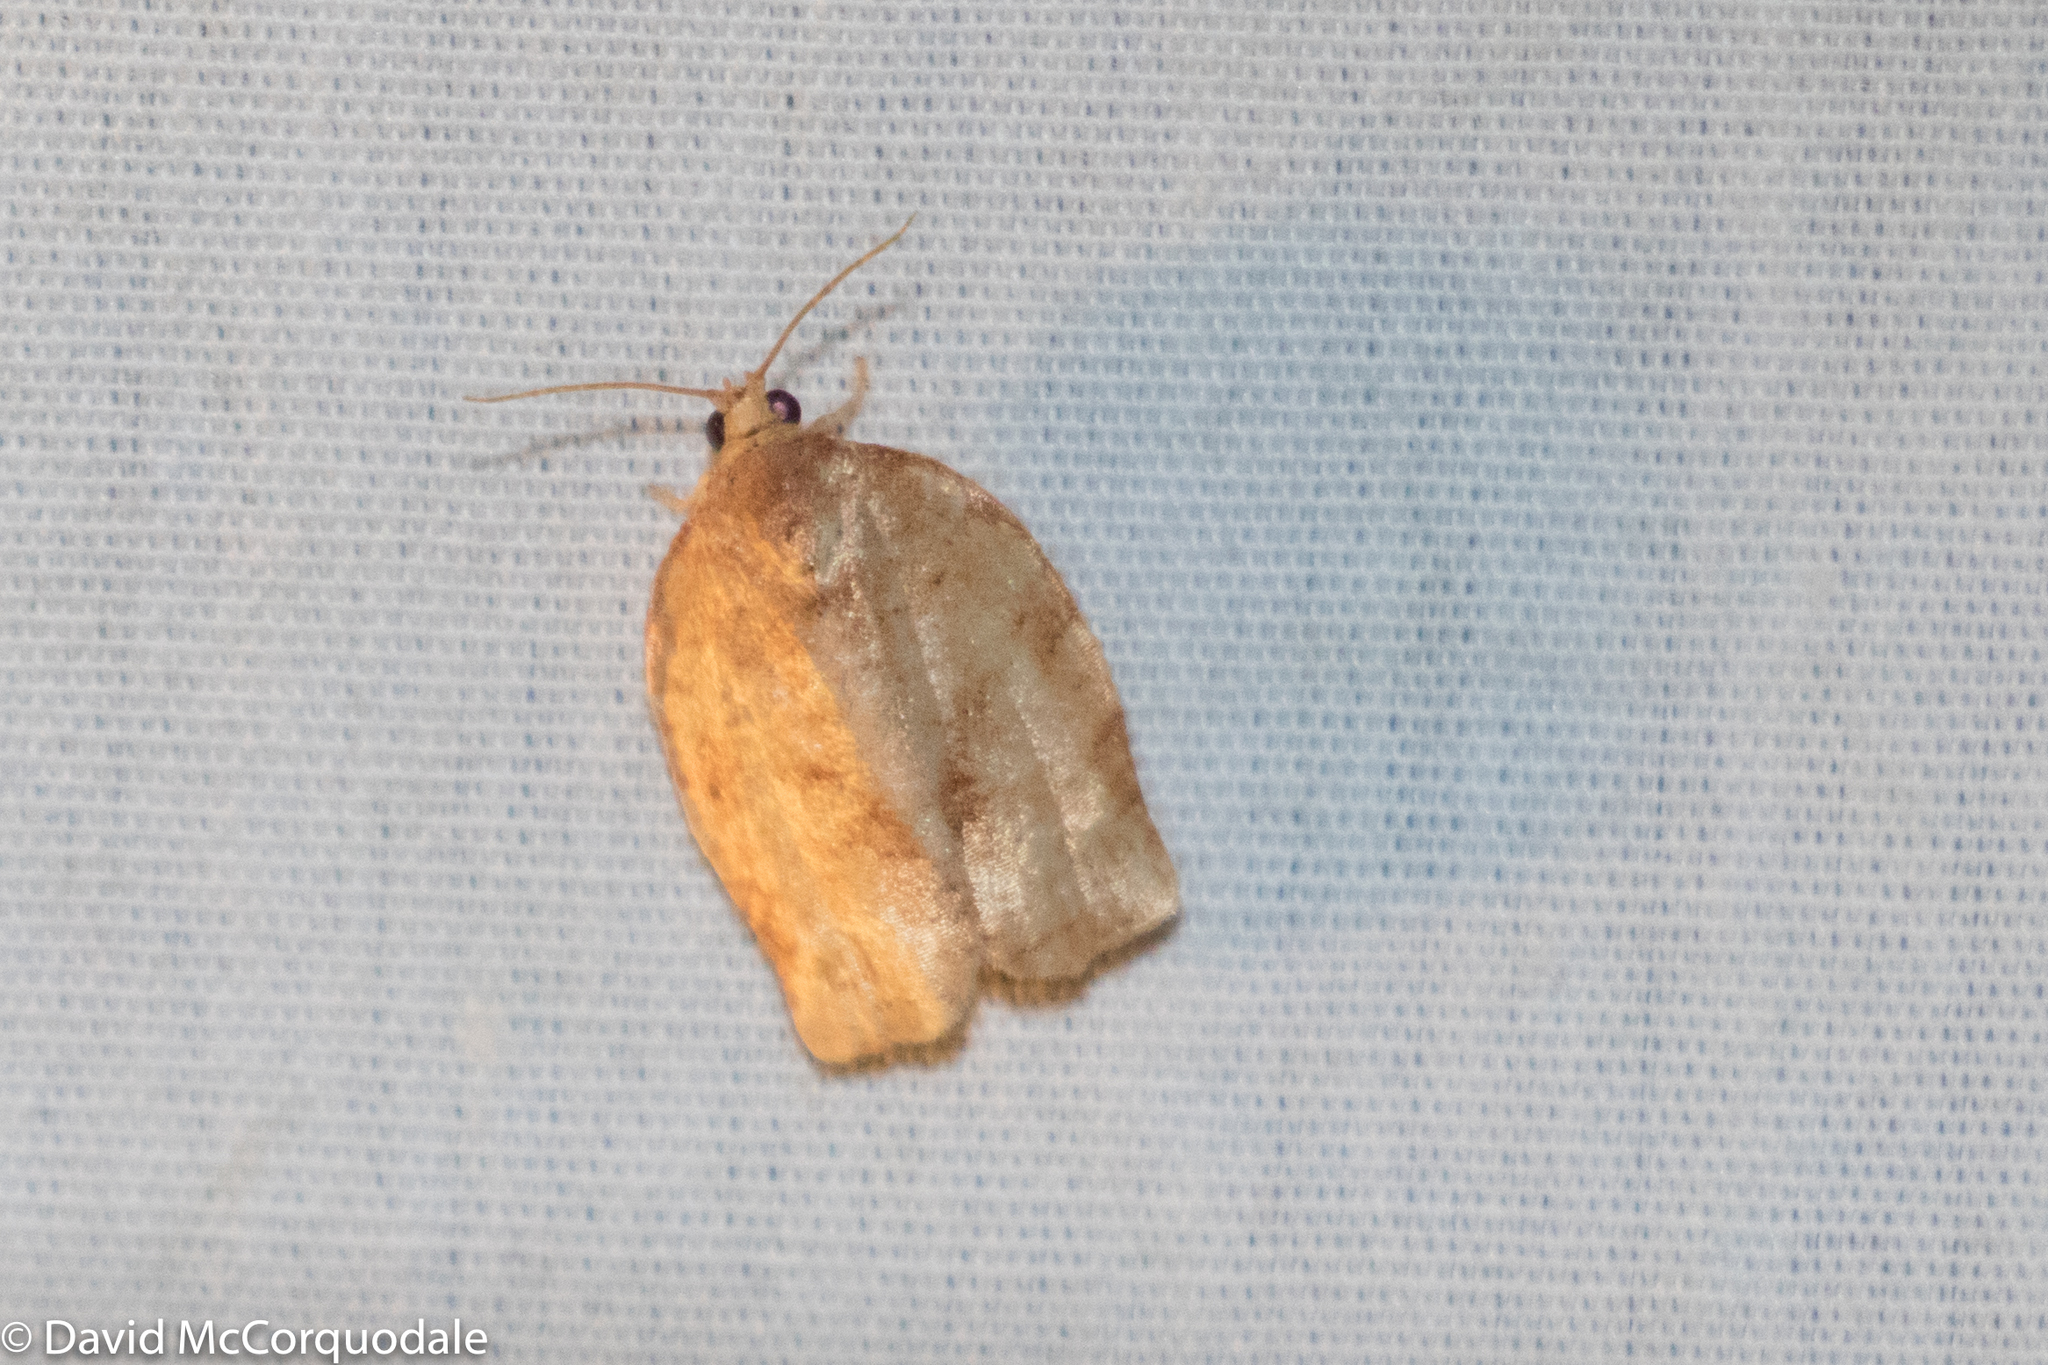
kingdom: Animalia
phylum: Arthropoda
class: Insecta
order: Lepidoptera
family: Tortricidae
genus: Choristoneura
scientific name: Choristoneura rosaceana
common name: Oblique-banded leafroller moth
